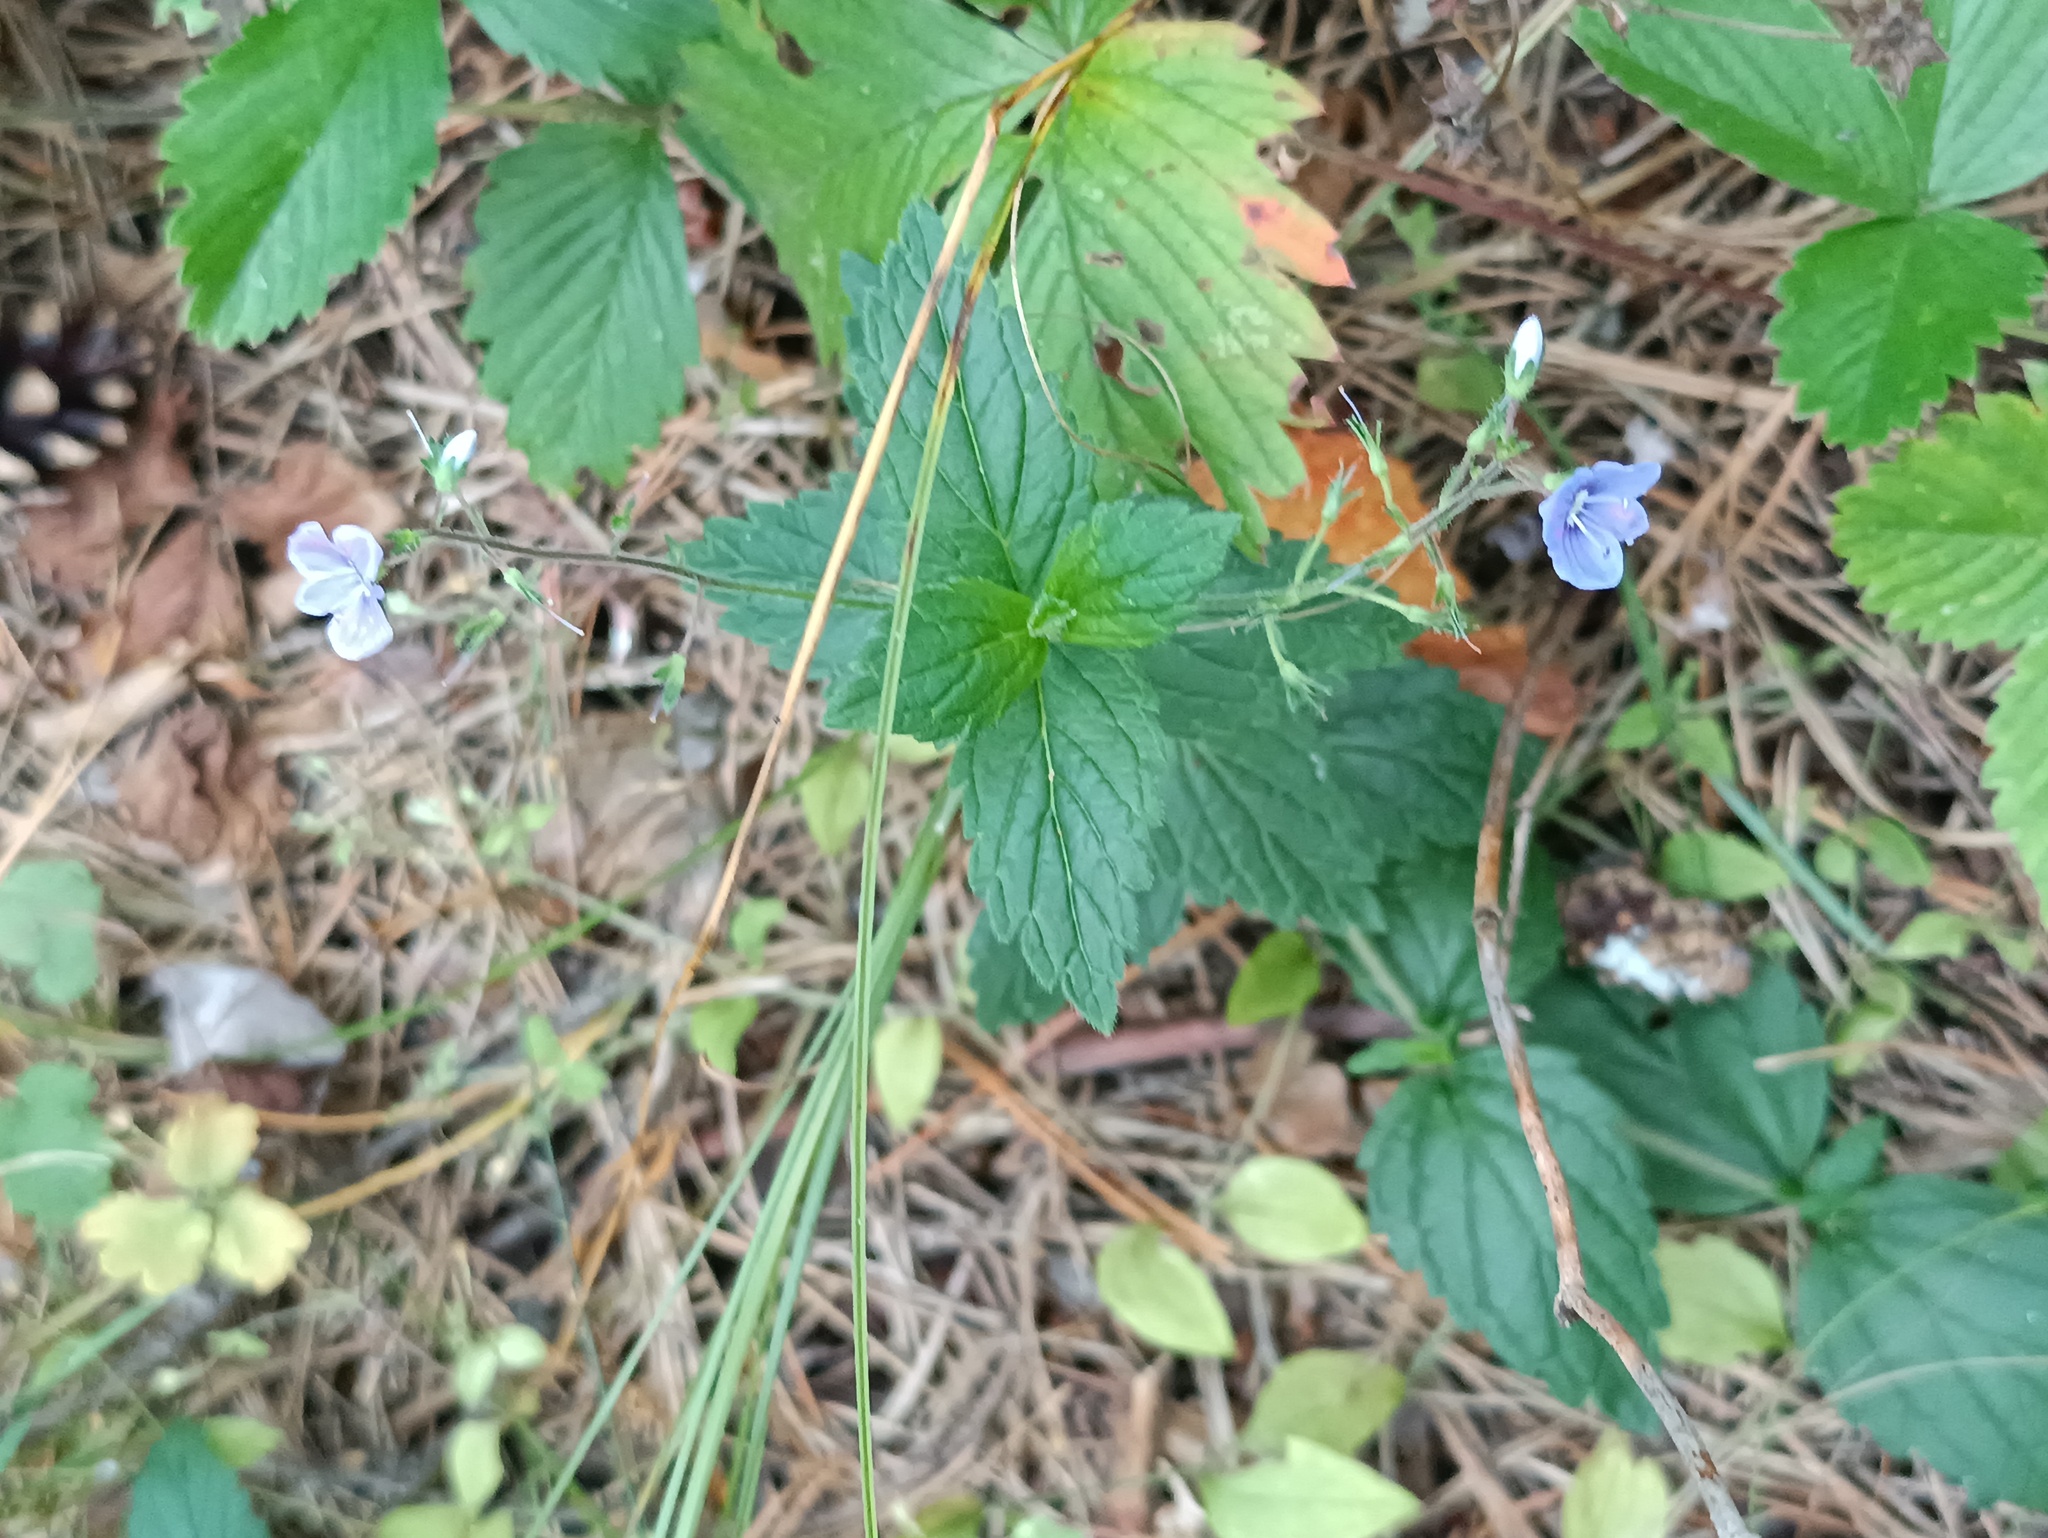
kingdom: Plantae
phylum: Tracheophyta
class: Magnoliopsida
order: Lamiales
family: Plantaginaceae
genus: Veronica
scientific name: Veronica chamaedrys
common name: Germander speedwell
